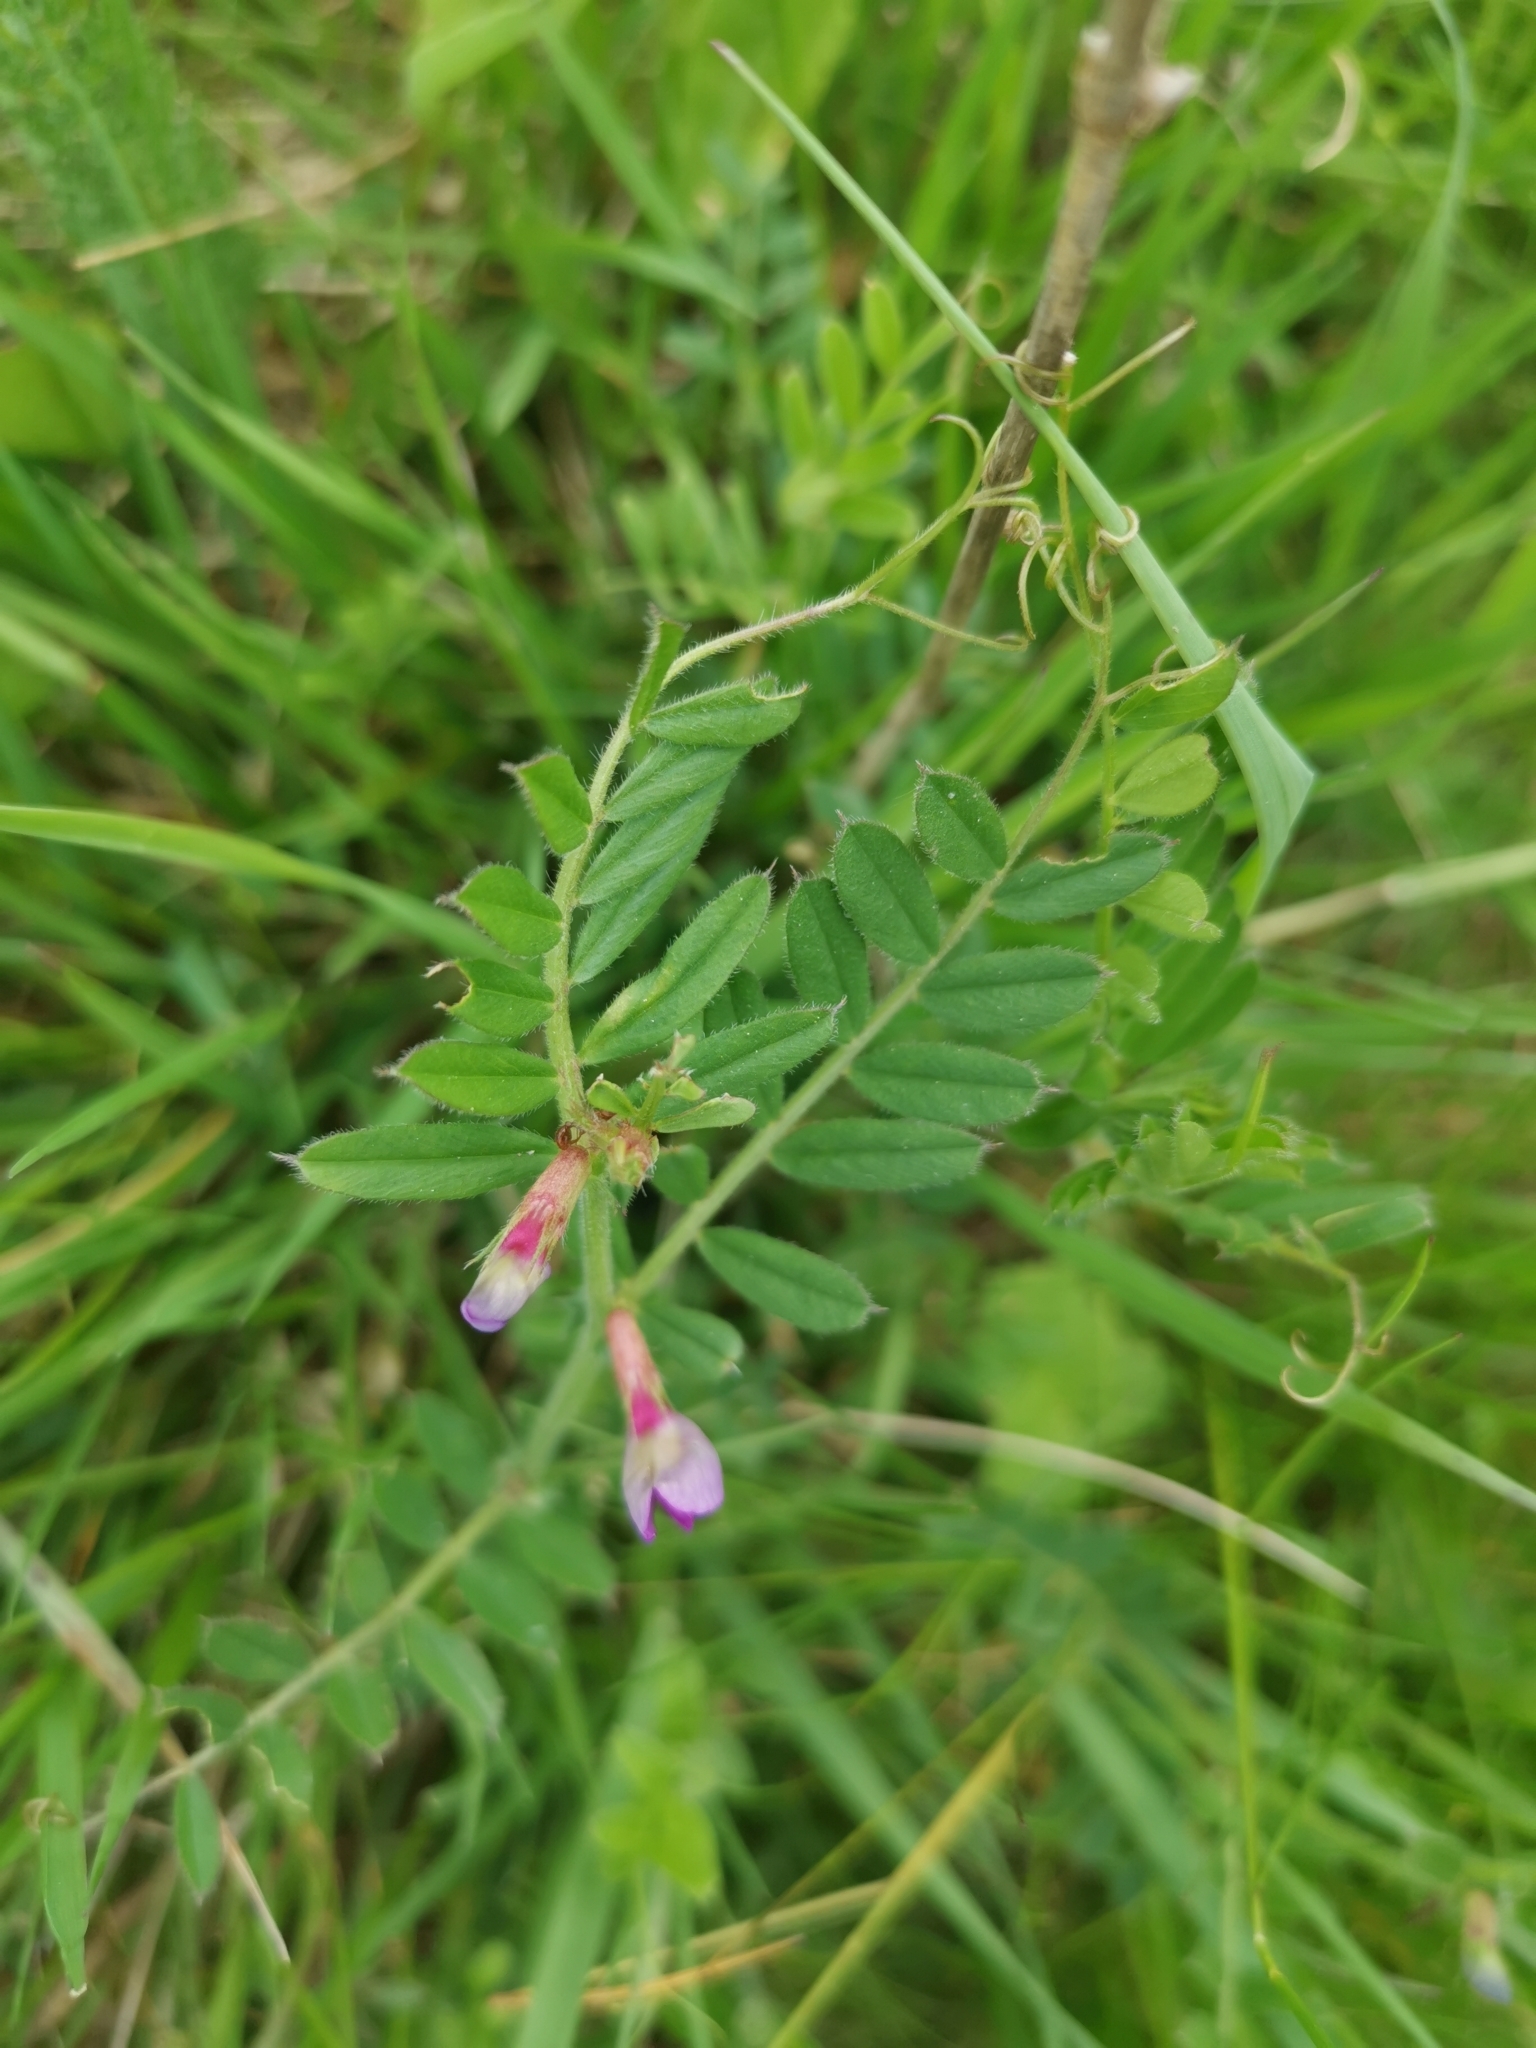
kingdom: Plantae
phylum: Tracheophyta
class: Magnoliopsida
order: Fabales
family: Fabaceae
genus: Vicia
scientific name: Vicia sativa
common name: Garden vetch
